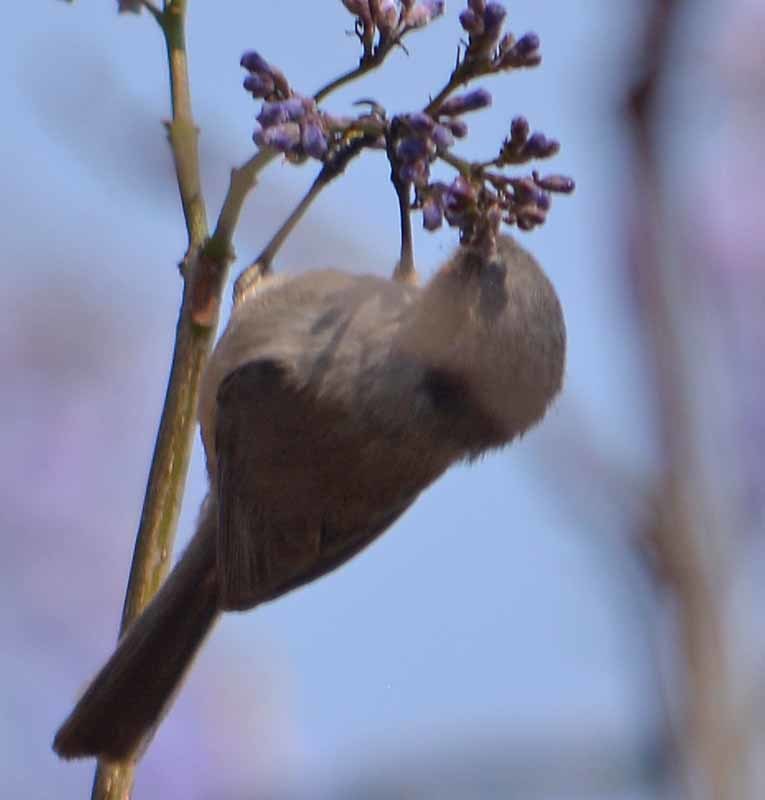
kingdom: Animalia
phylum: Chordata
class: Aves
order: Passeriformes
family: Aegithalidae
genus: Psaltriparus
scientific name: Psaltriparus minimus
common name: American bushtit
